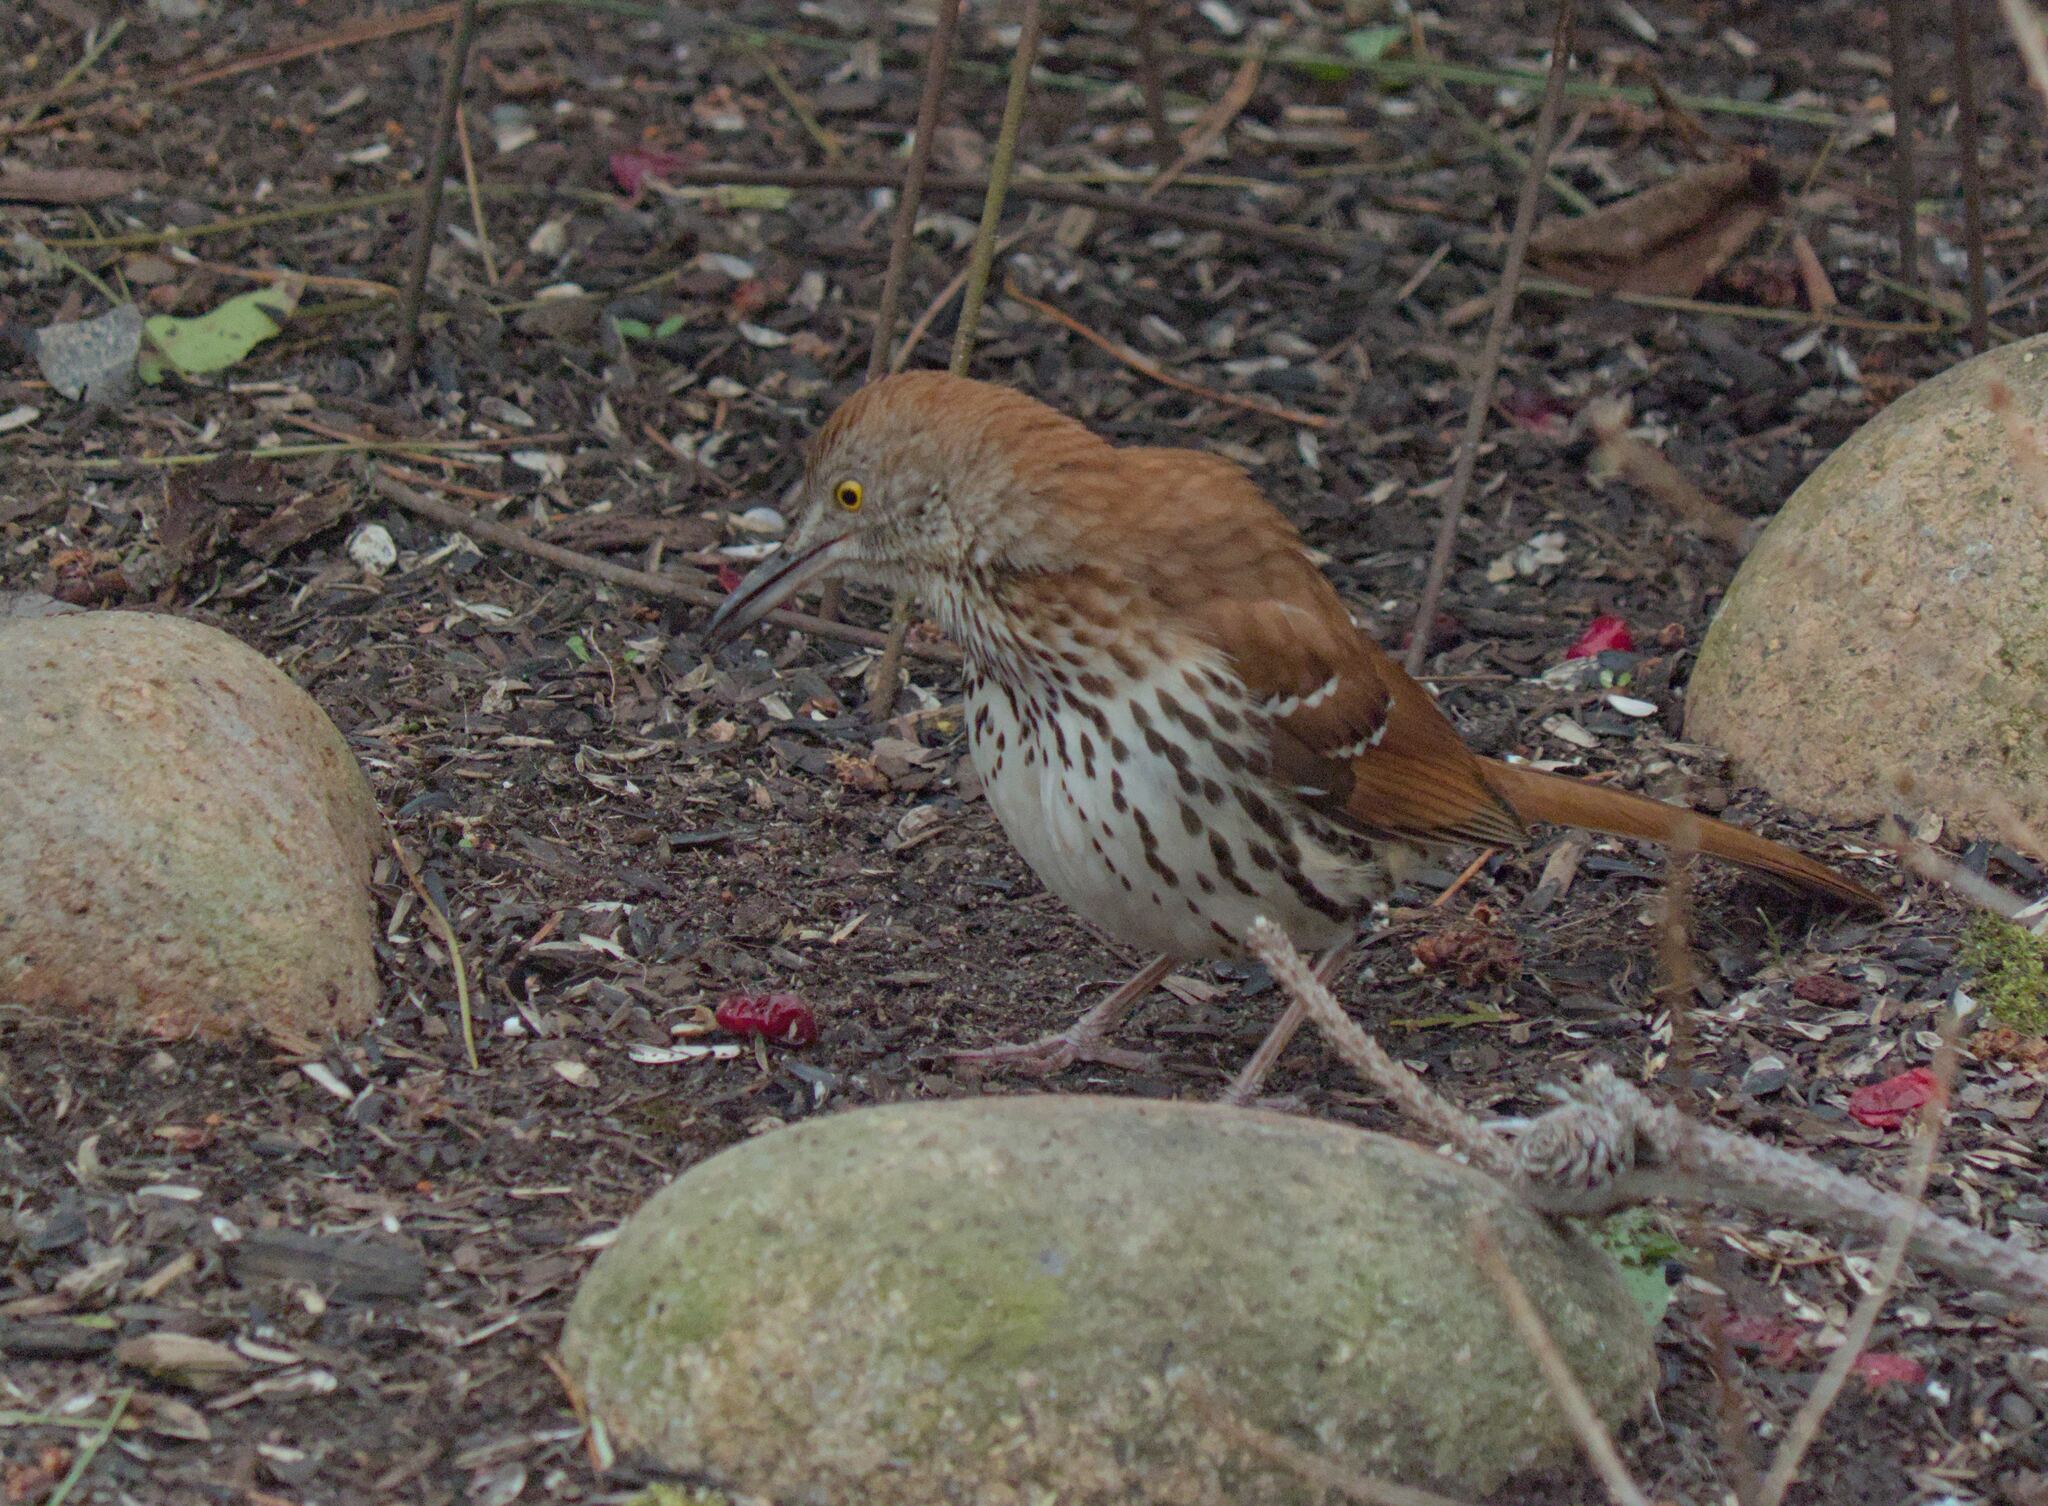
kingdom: Animalia
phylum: Chordata
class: Aves
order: Passeriformes
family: Mimidae
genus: Toxostoma
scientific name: Toxostoma rufum
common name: Brown thrasher
